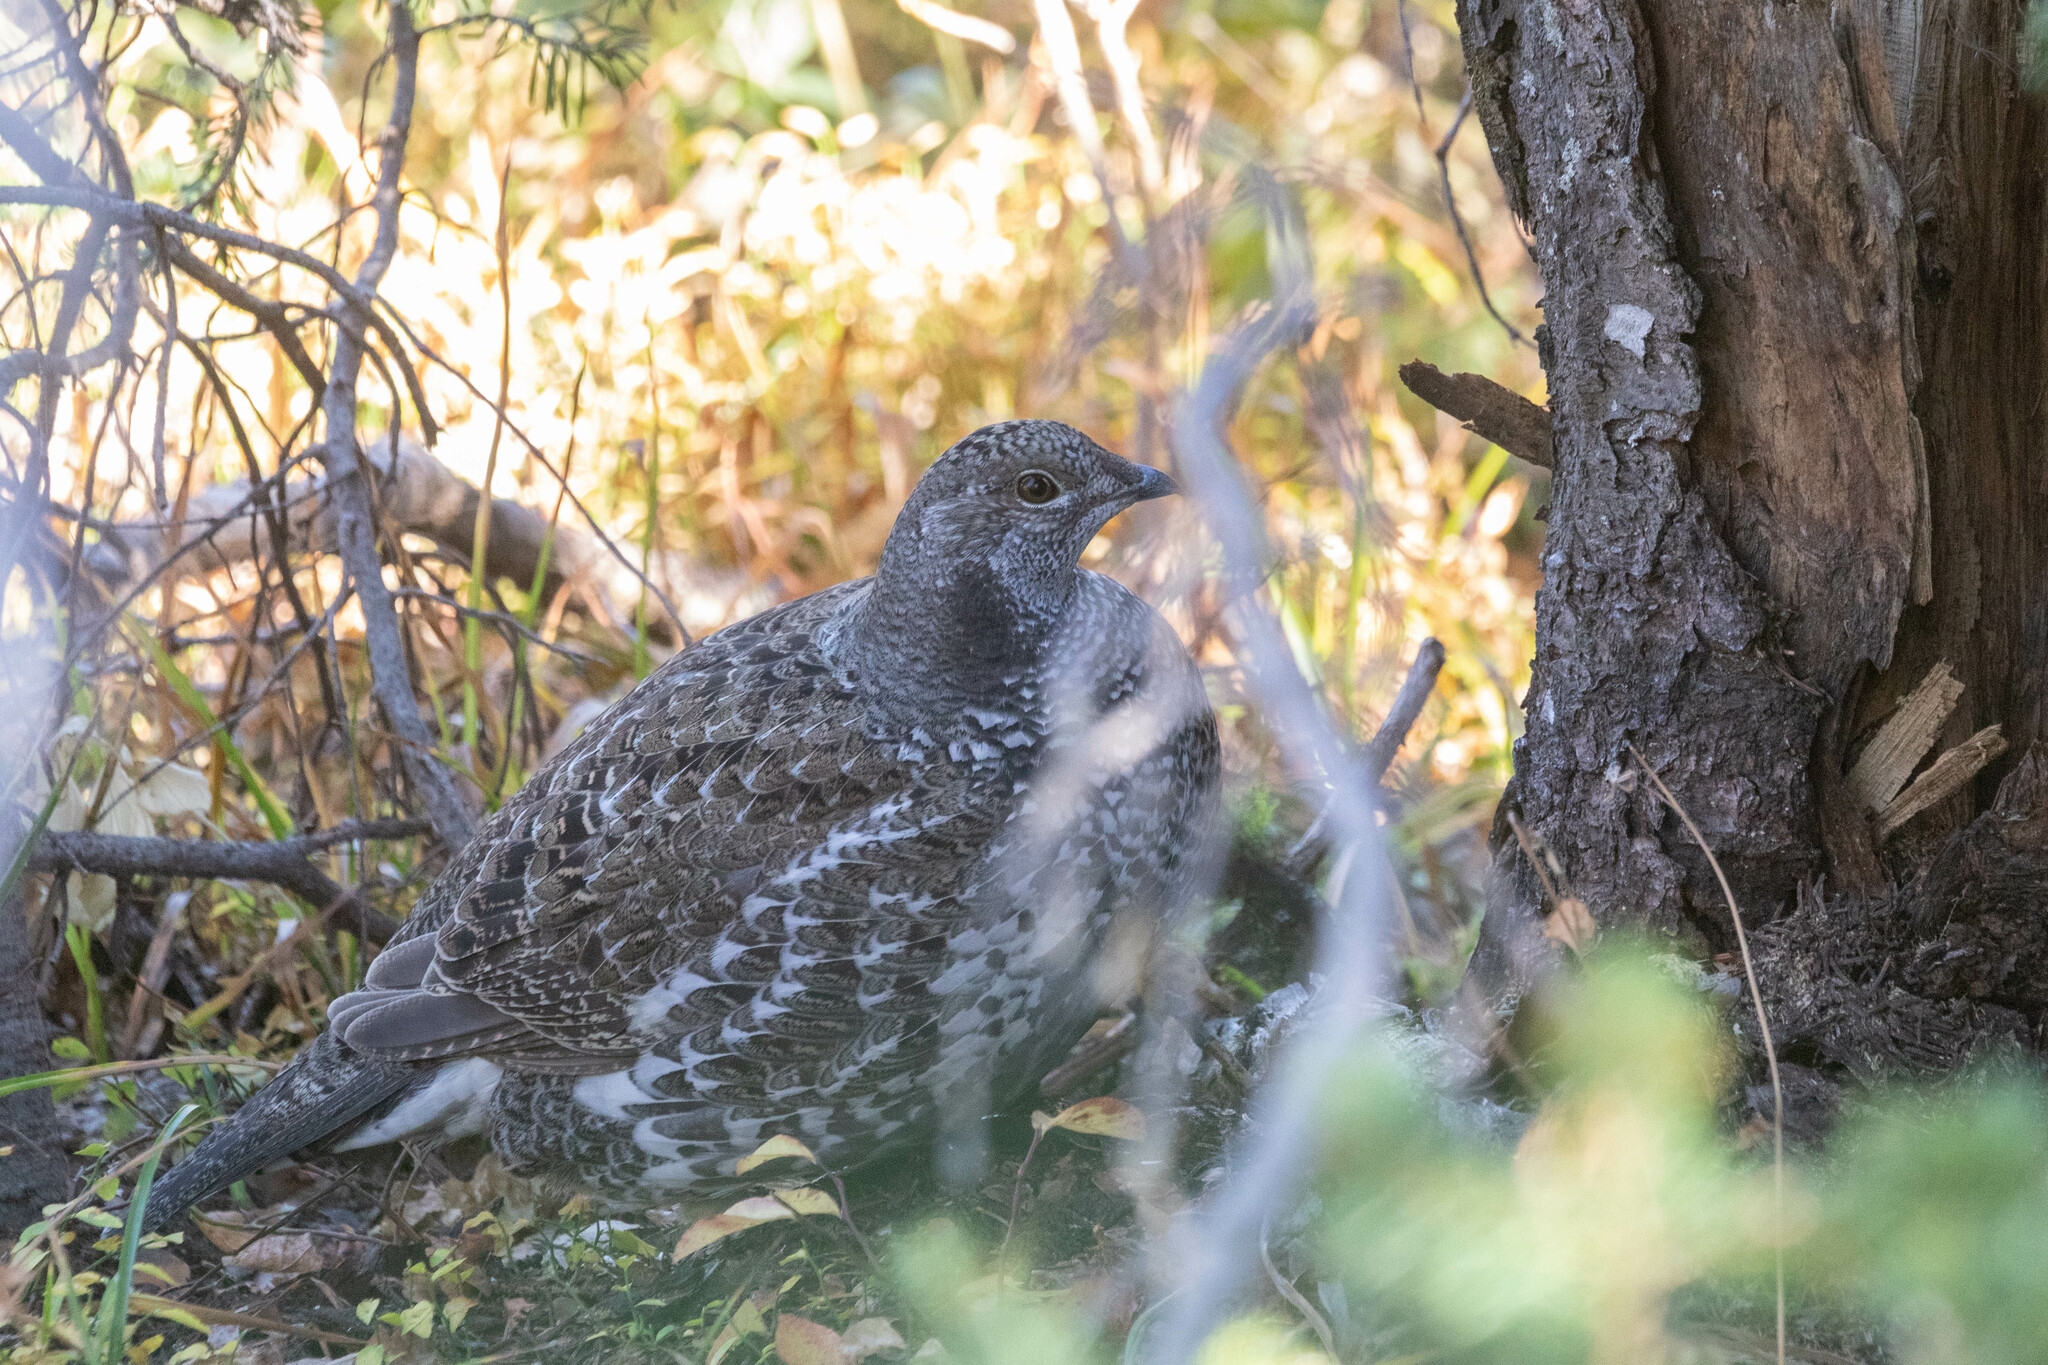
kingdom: Animalia
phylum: Chordata
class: Aves
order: Galliformes
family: Phasianidae
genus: Dendragapus
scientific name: Dendragapus obscurus
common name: Dusky grouse
